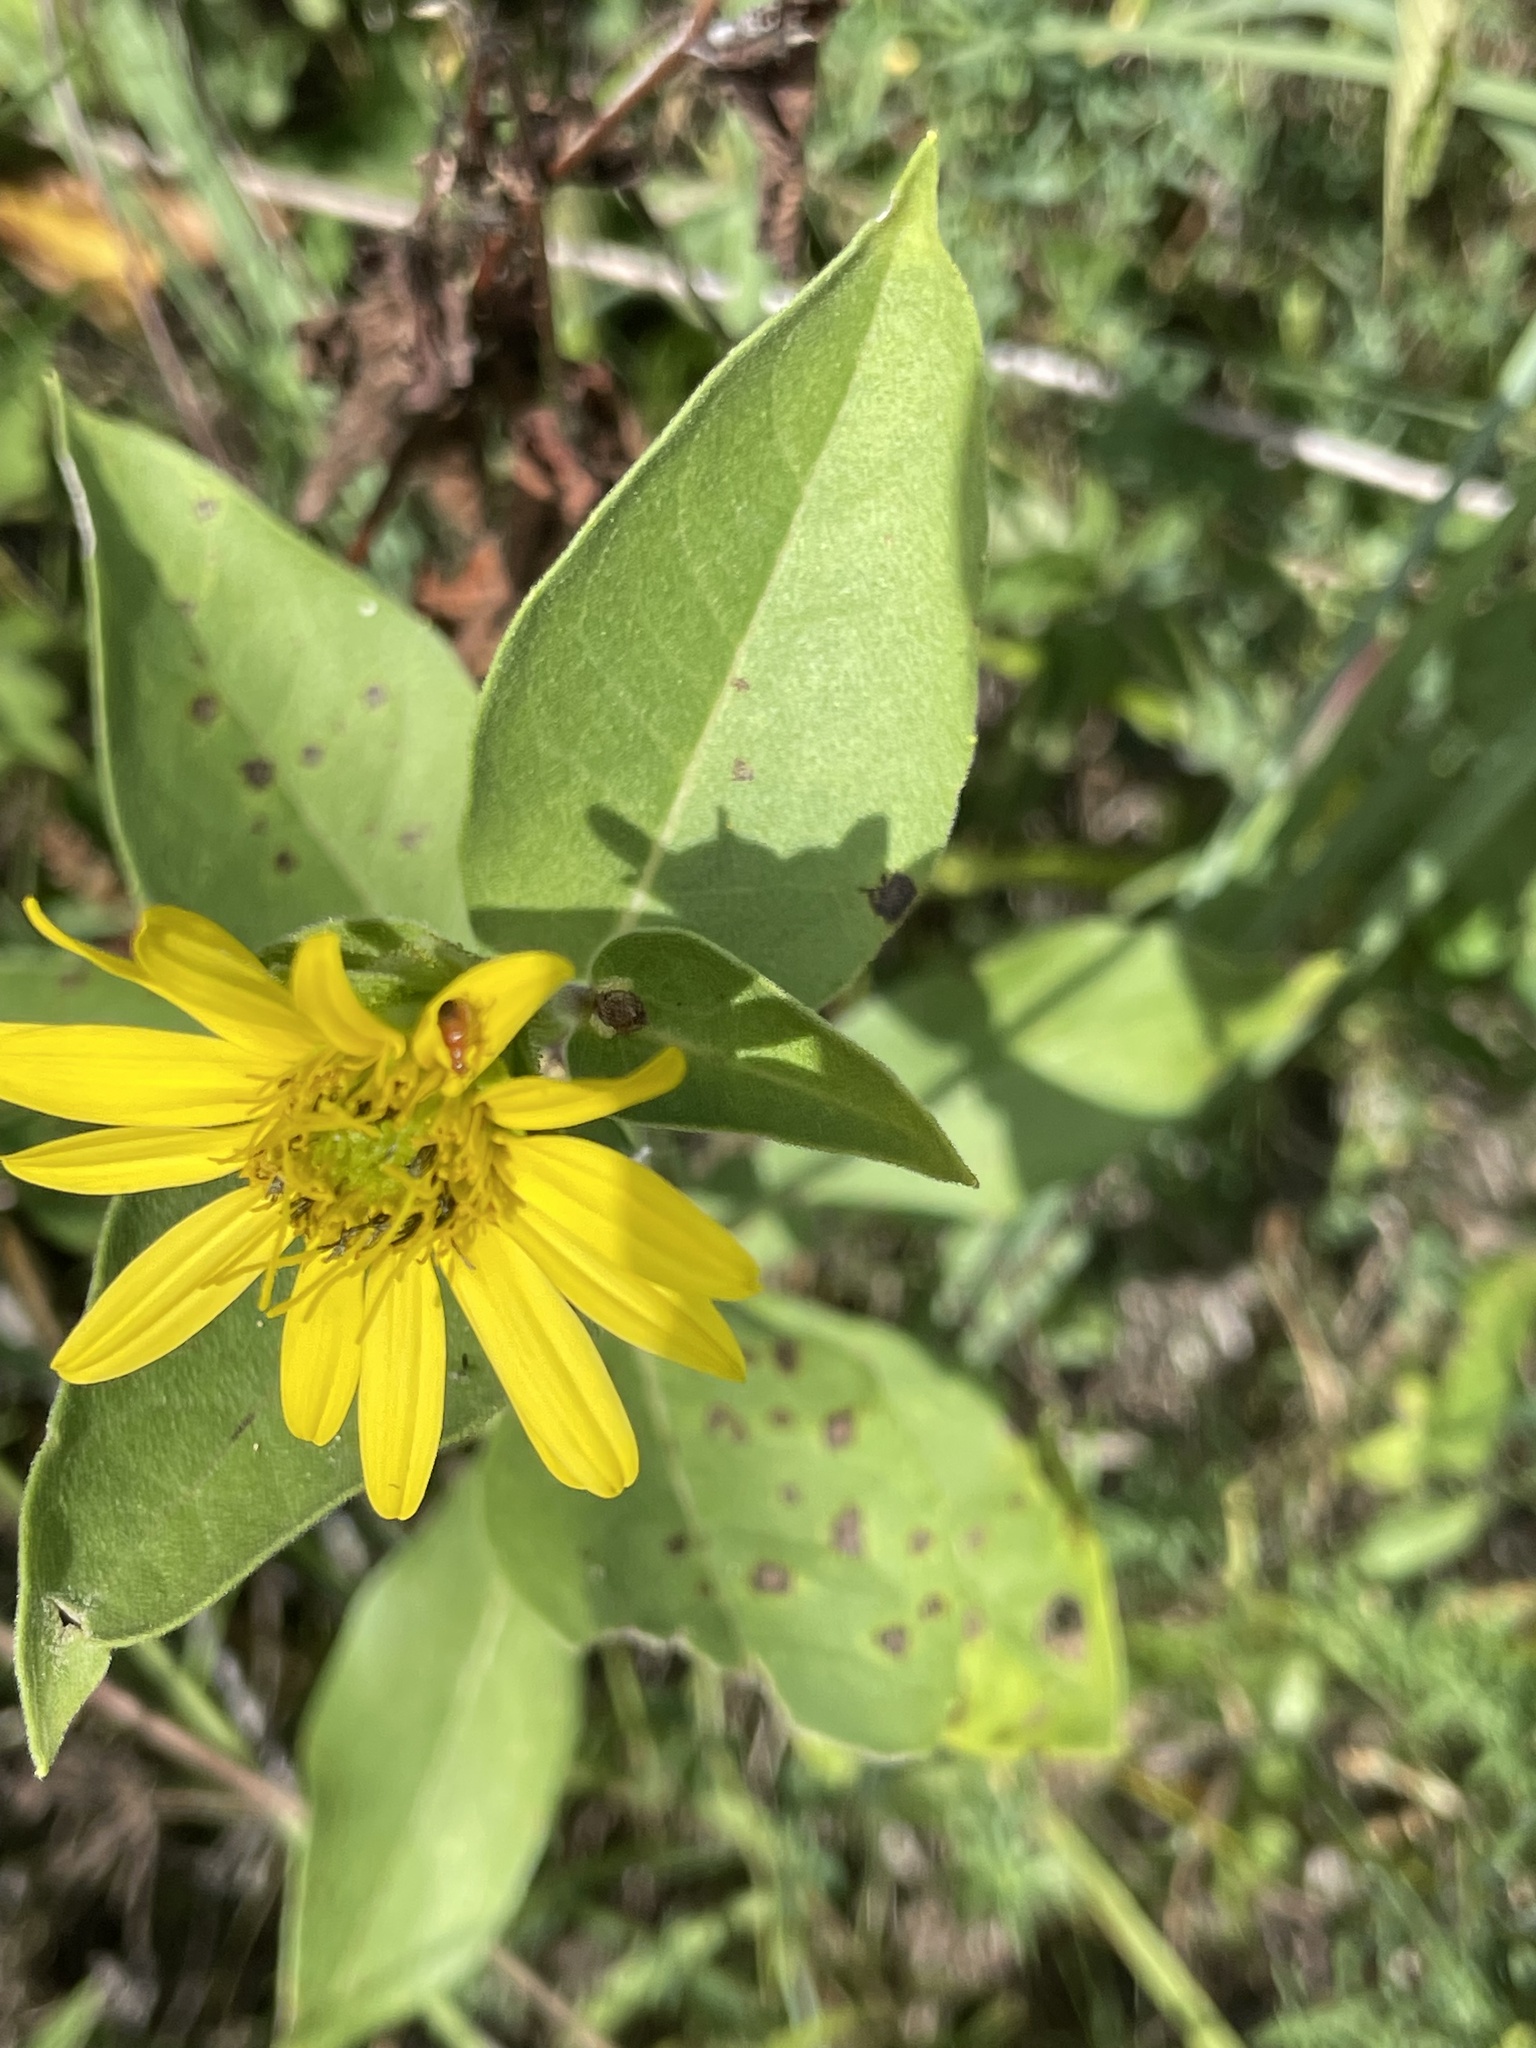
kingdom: Plantae
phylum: Tracheophyta
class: Magnoliopsida
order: Asterales
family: Asteraceae
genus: Silphium
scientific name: Silphium integrifolium
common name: Whole-leaf rosinweed
